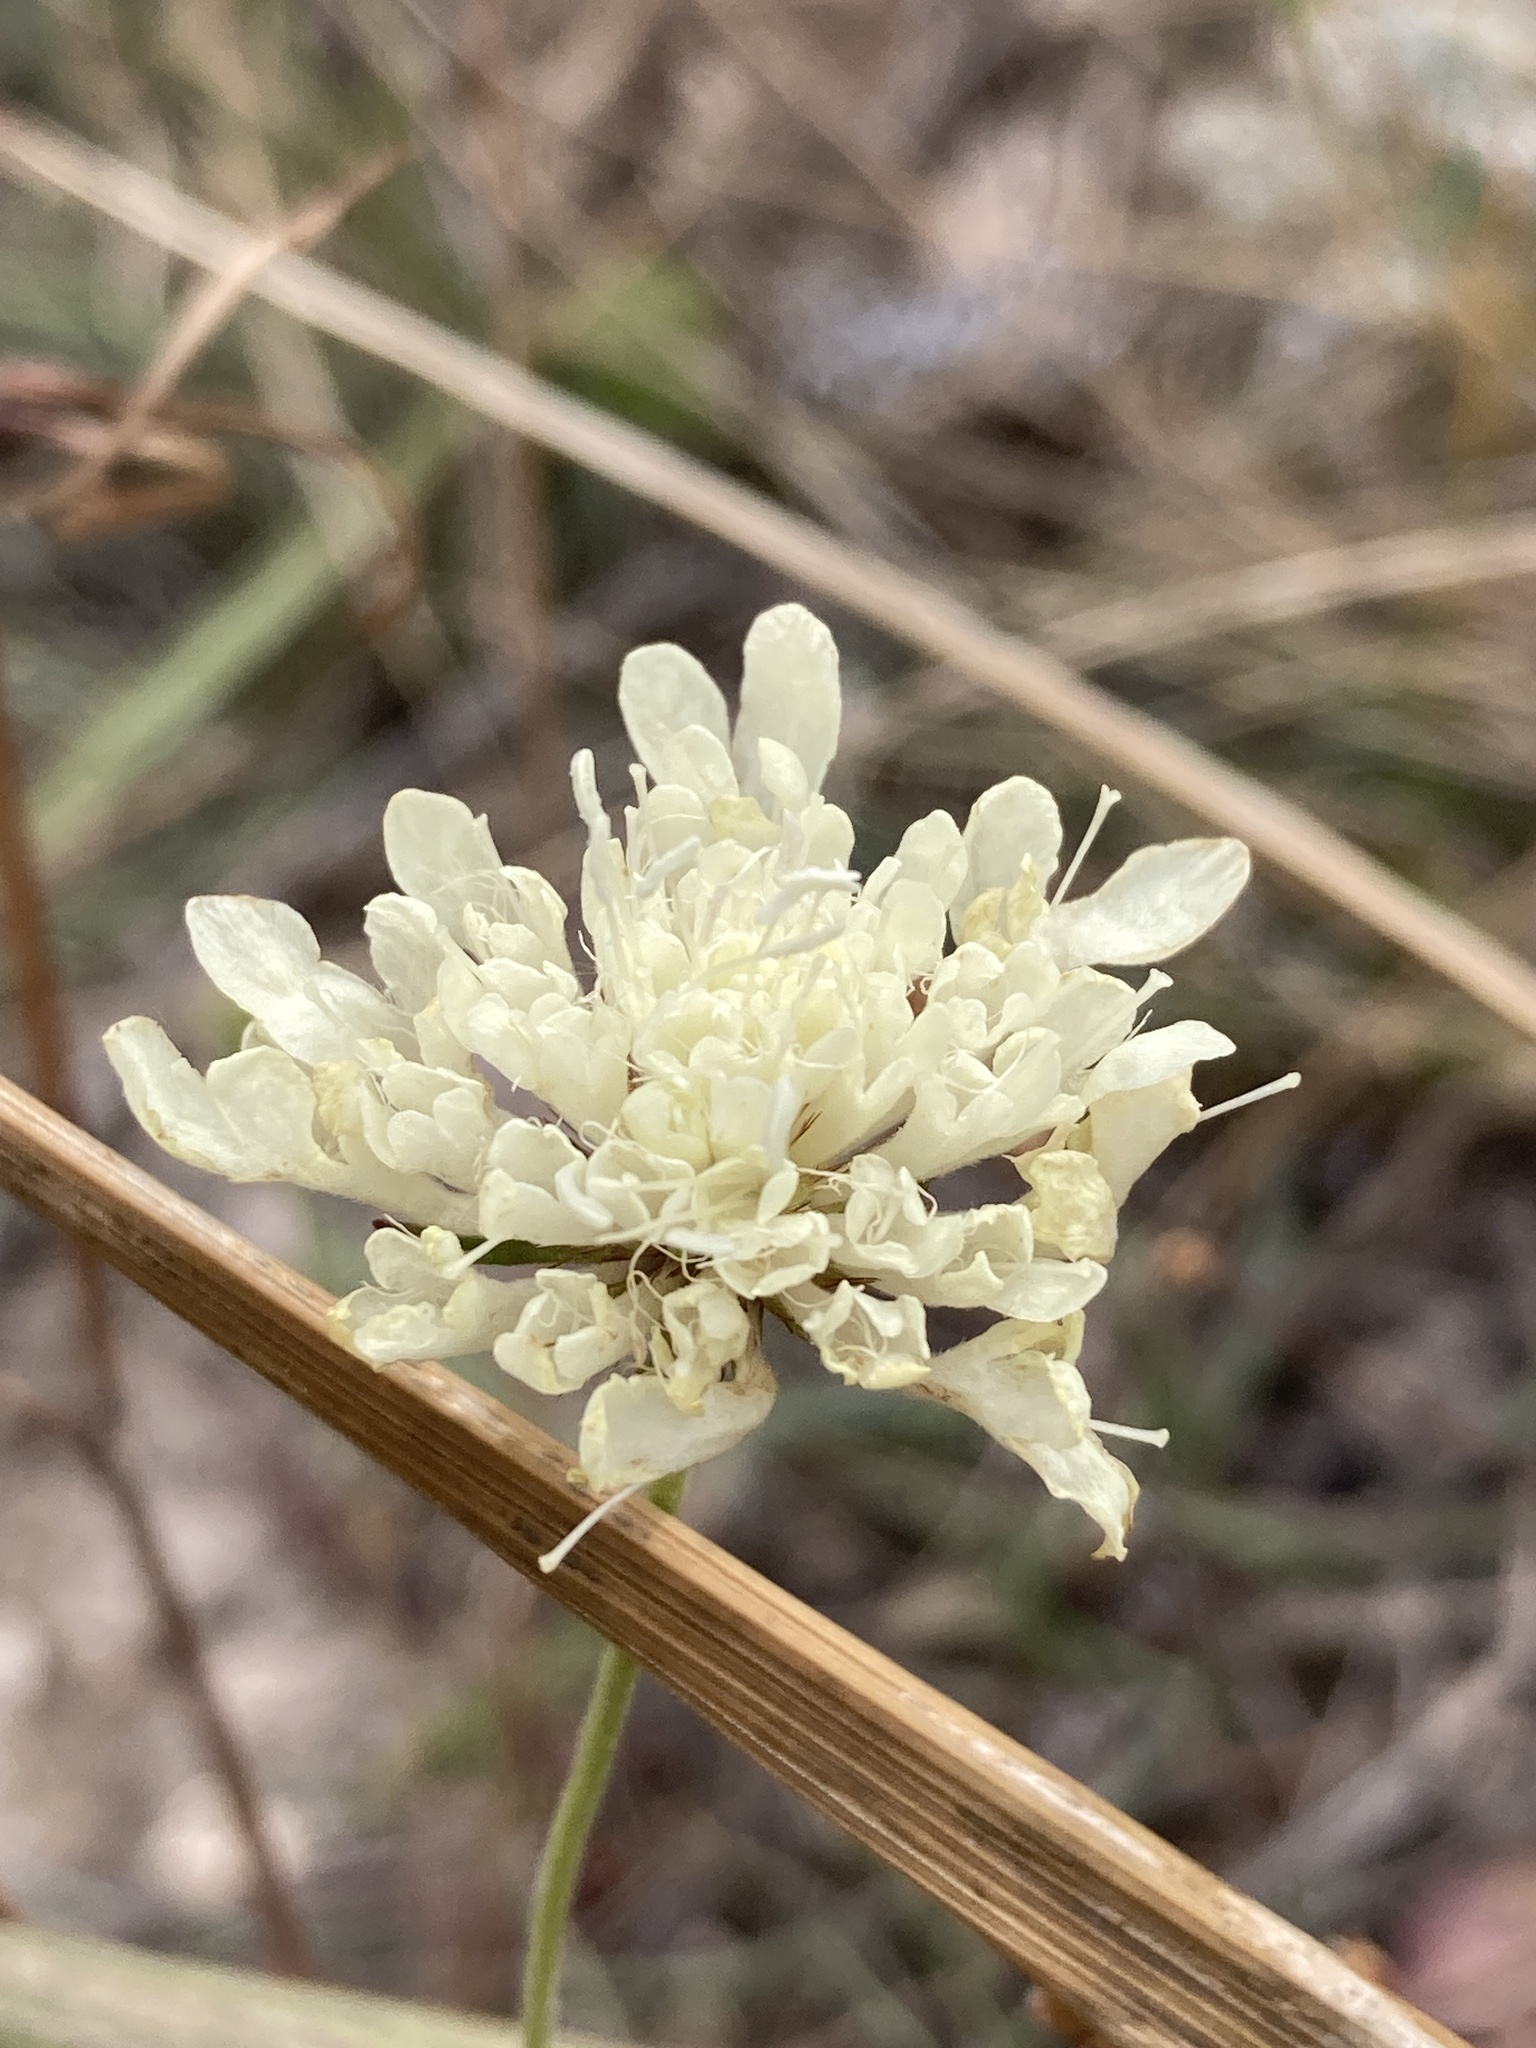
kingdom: Plantae
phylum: Tracheophyta
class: Magnoliopsida
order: Dipsacales
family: Caprifoliaceae
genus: Scabiosa
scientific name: Scabiosa ochroleuca
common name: Cream pincushions
